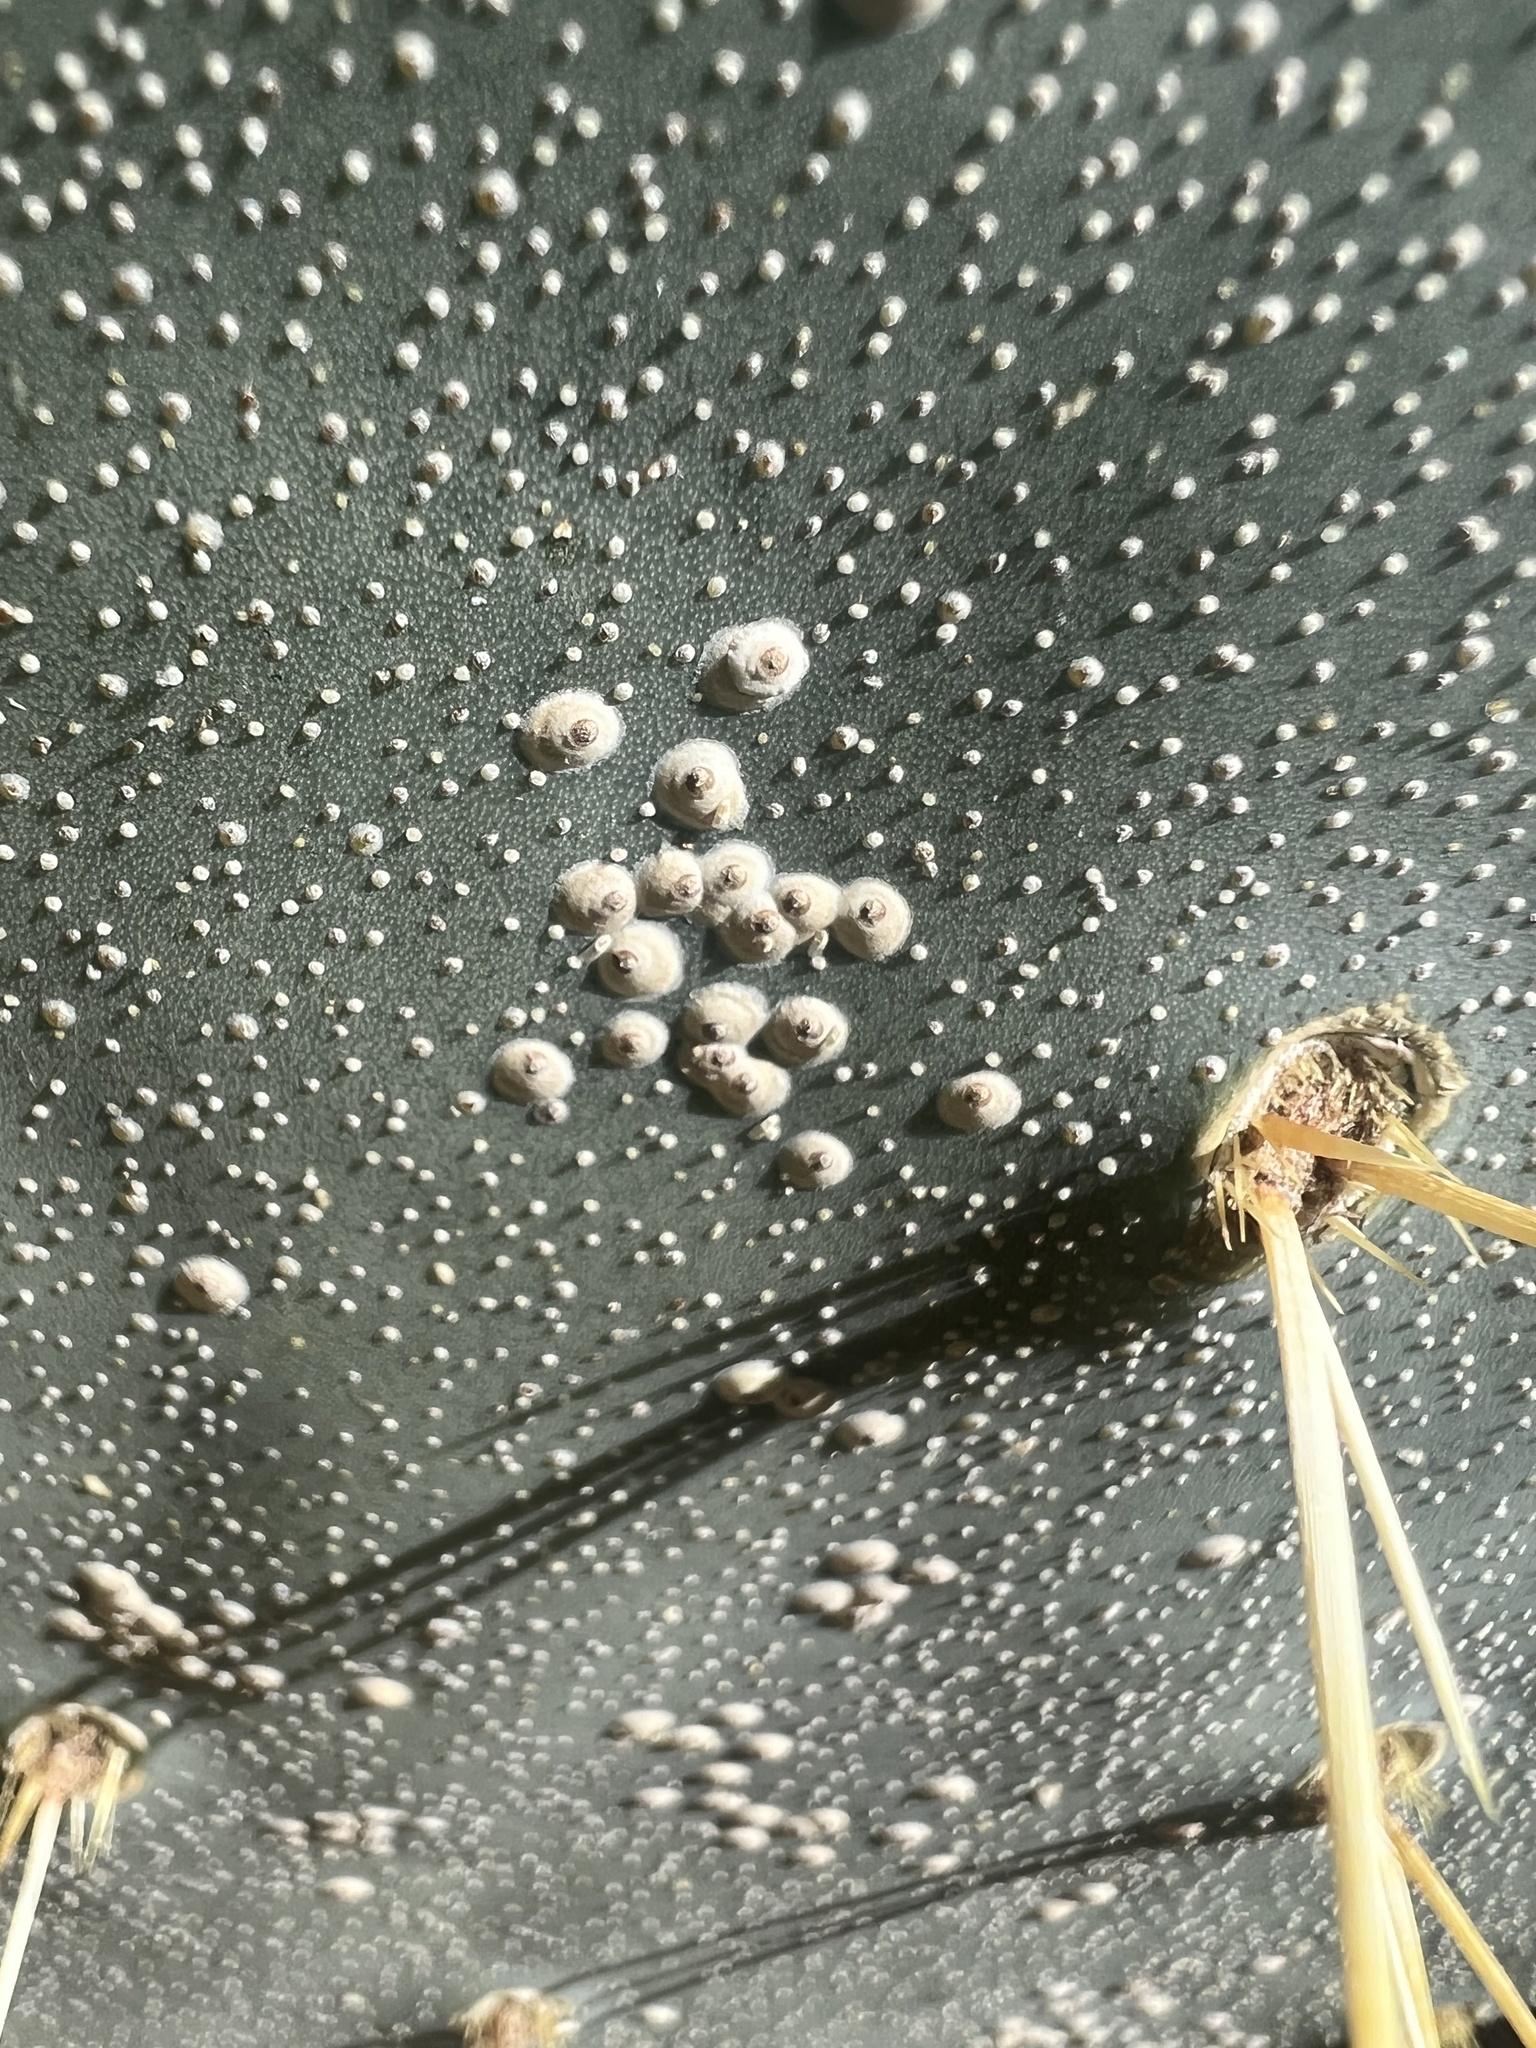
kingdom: Animalia
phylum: Arthropoda
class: Insecta
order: Hemiptera
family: Diaspididae
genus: Diaspis
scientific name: Diaspis echinocacti
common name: Cactus scale
